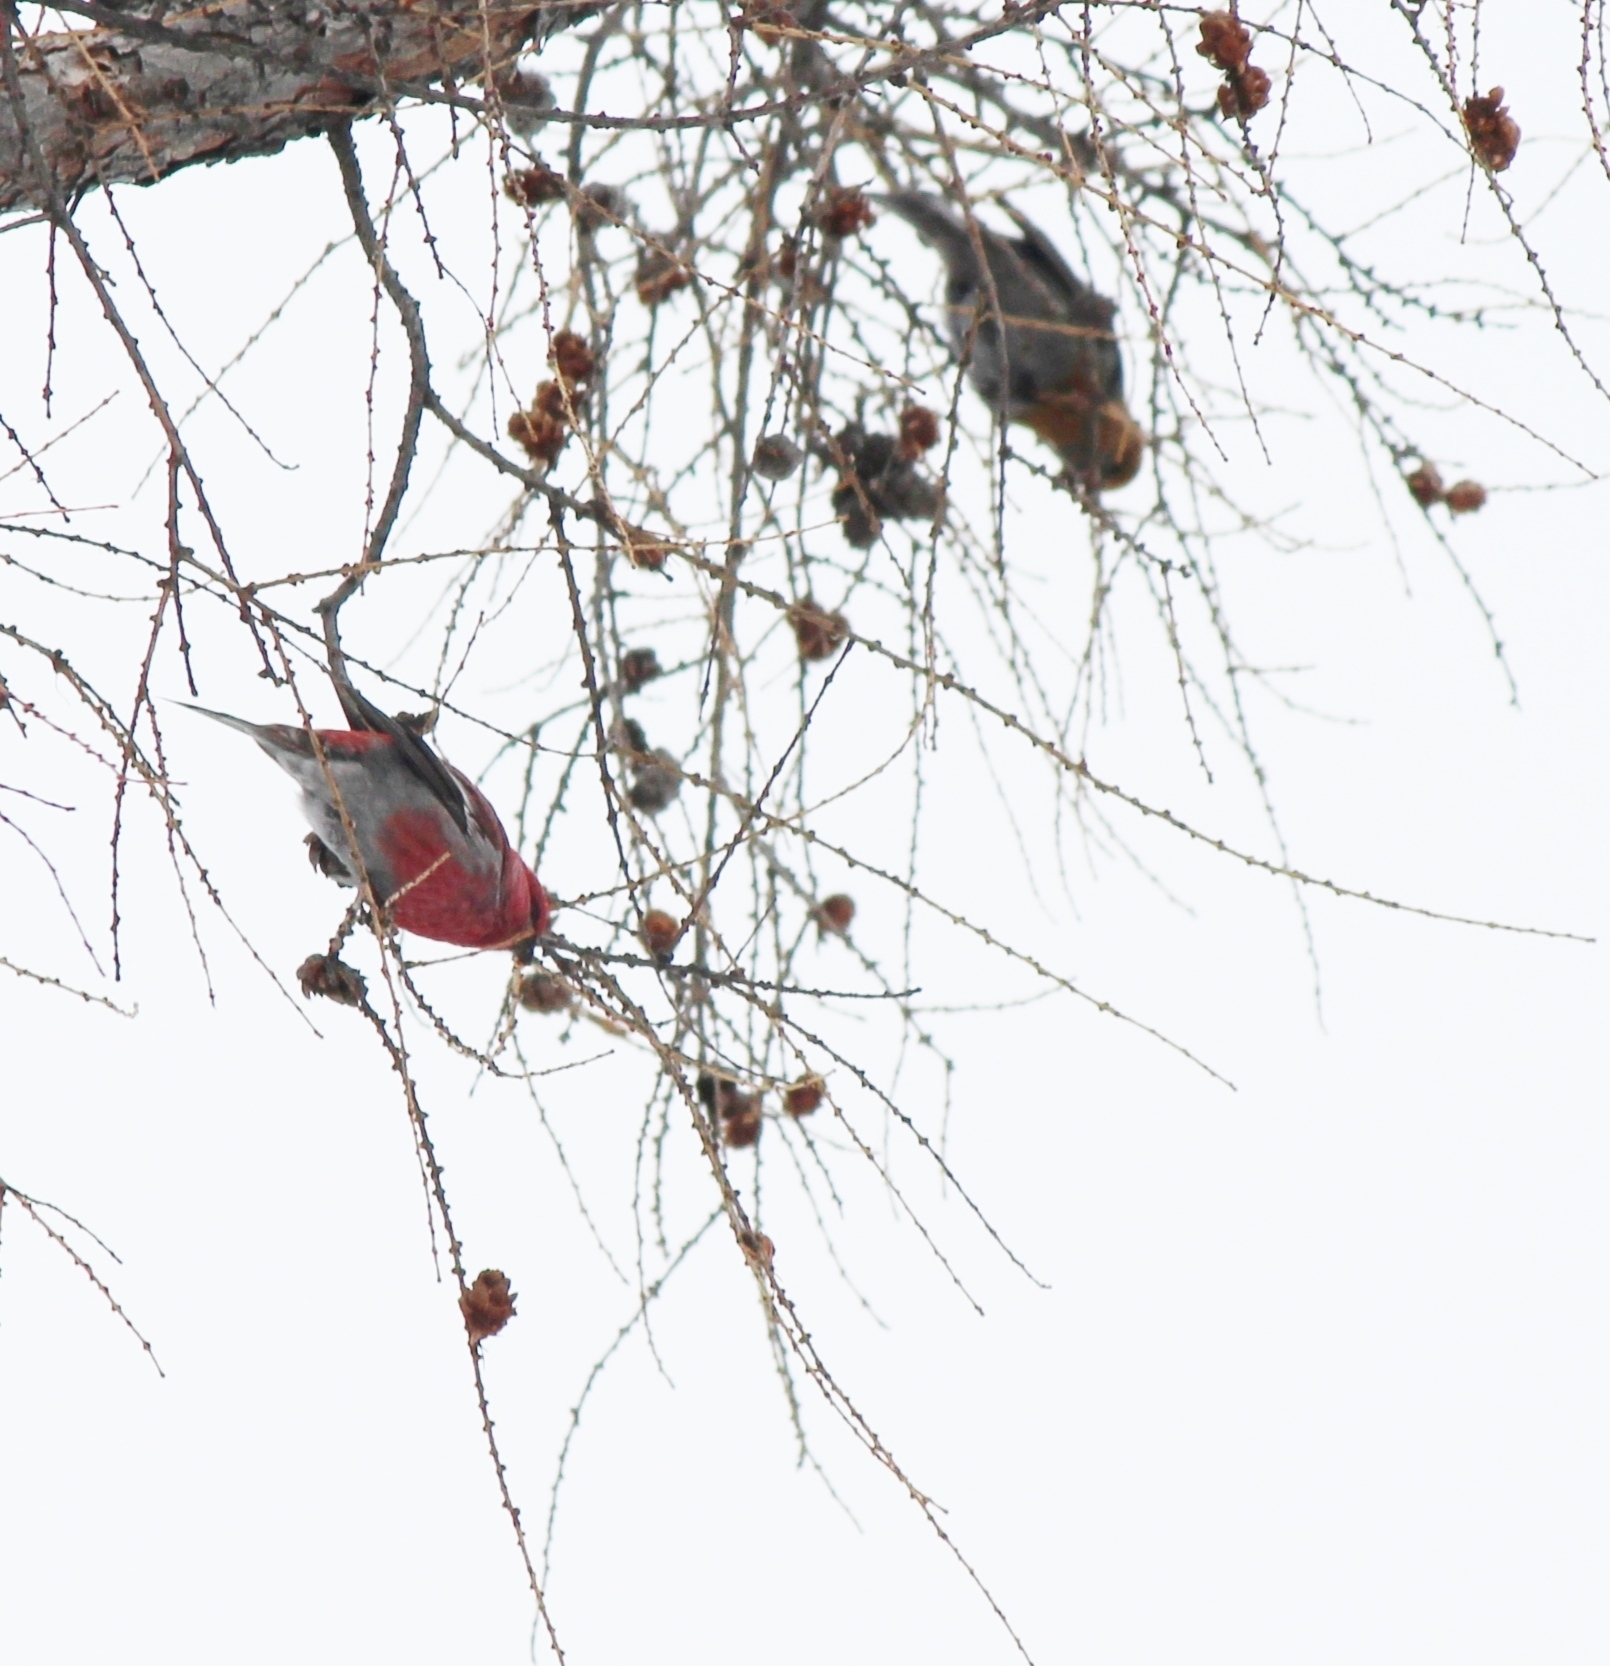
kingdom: Animalia
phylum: Chordata
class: Aves
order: Passeriformes
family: Fringillidae
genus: Pinicola
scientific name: Pinicola enucleator
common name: Pine grosbeak
